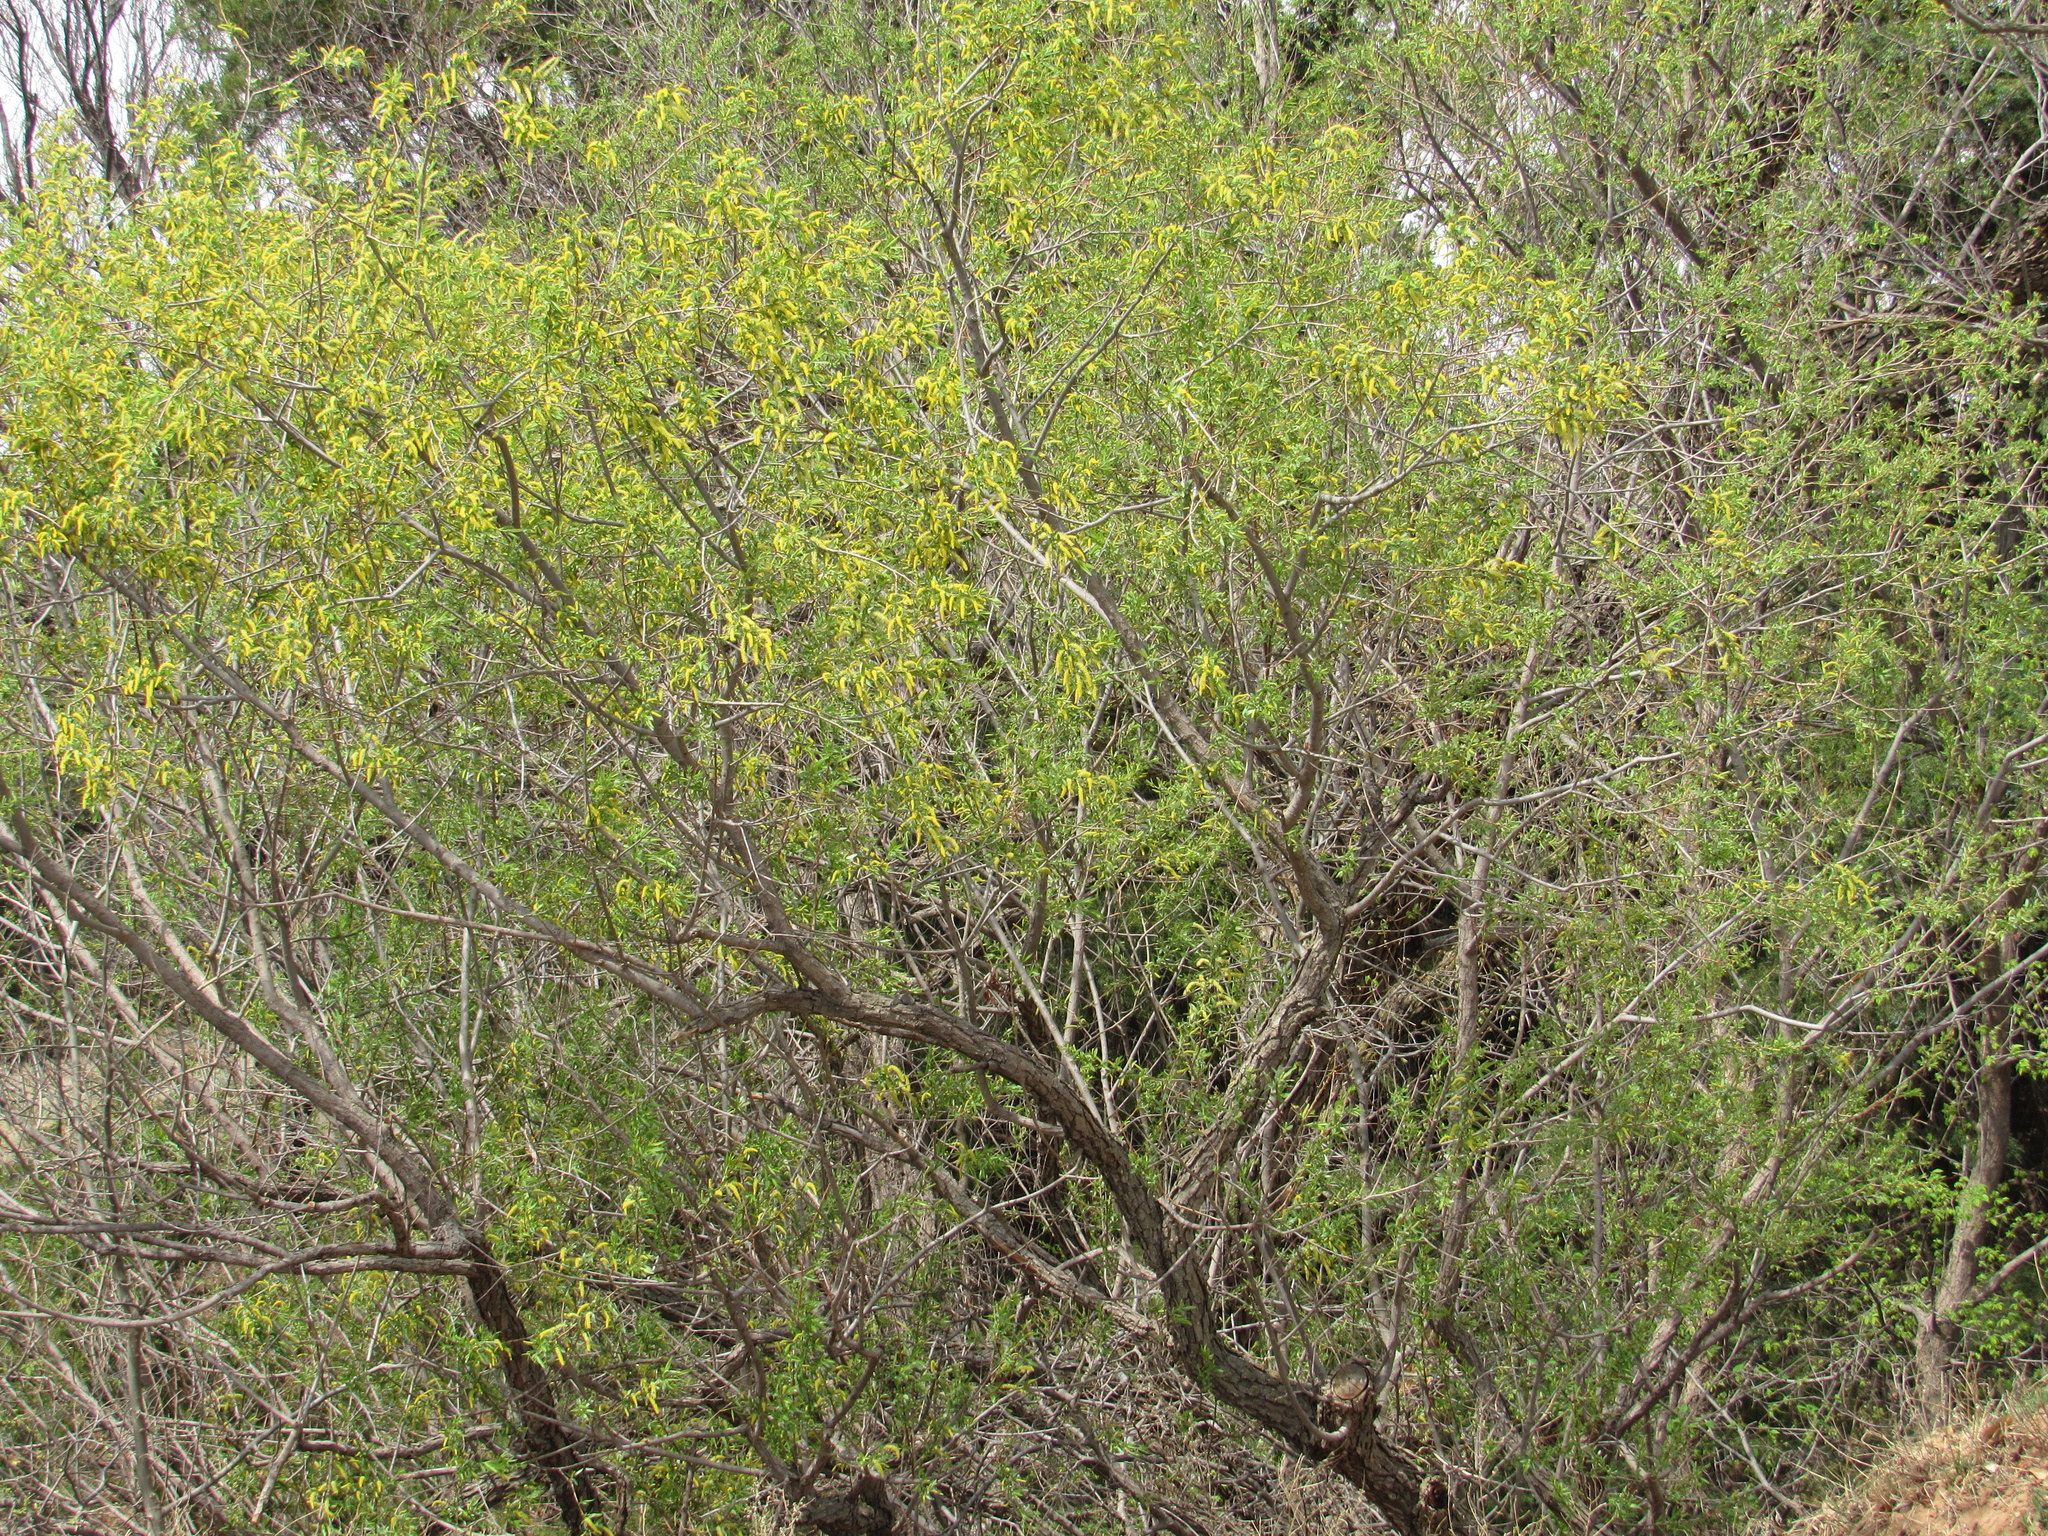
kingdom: Plantae
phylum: Tracheophyta
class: Magnoliopsida
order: Malpighiales
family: Salicaceae
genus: Salix
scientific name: Salix nigra
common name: Black willow
